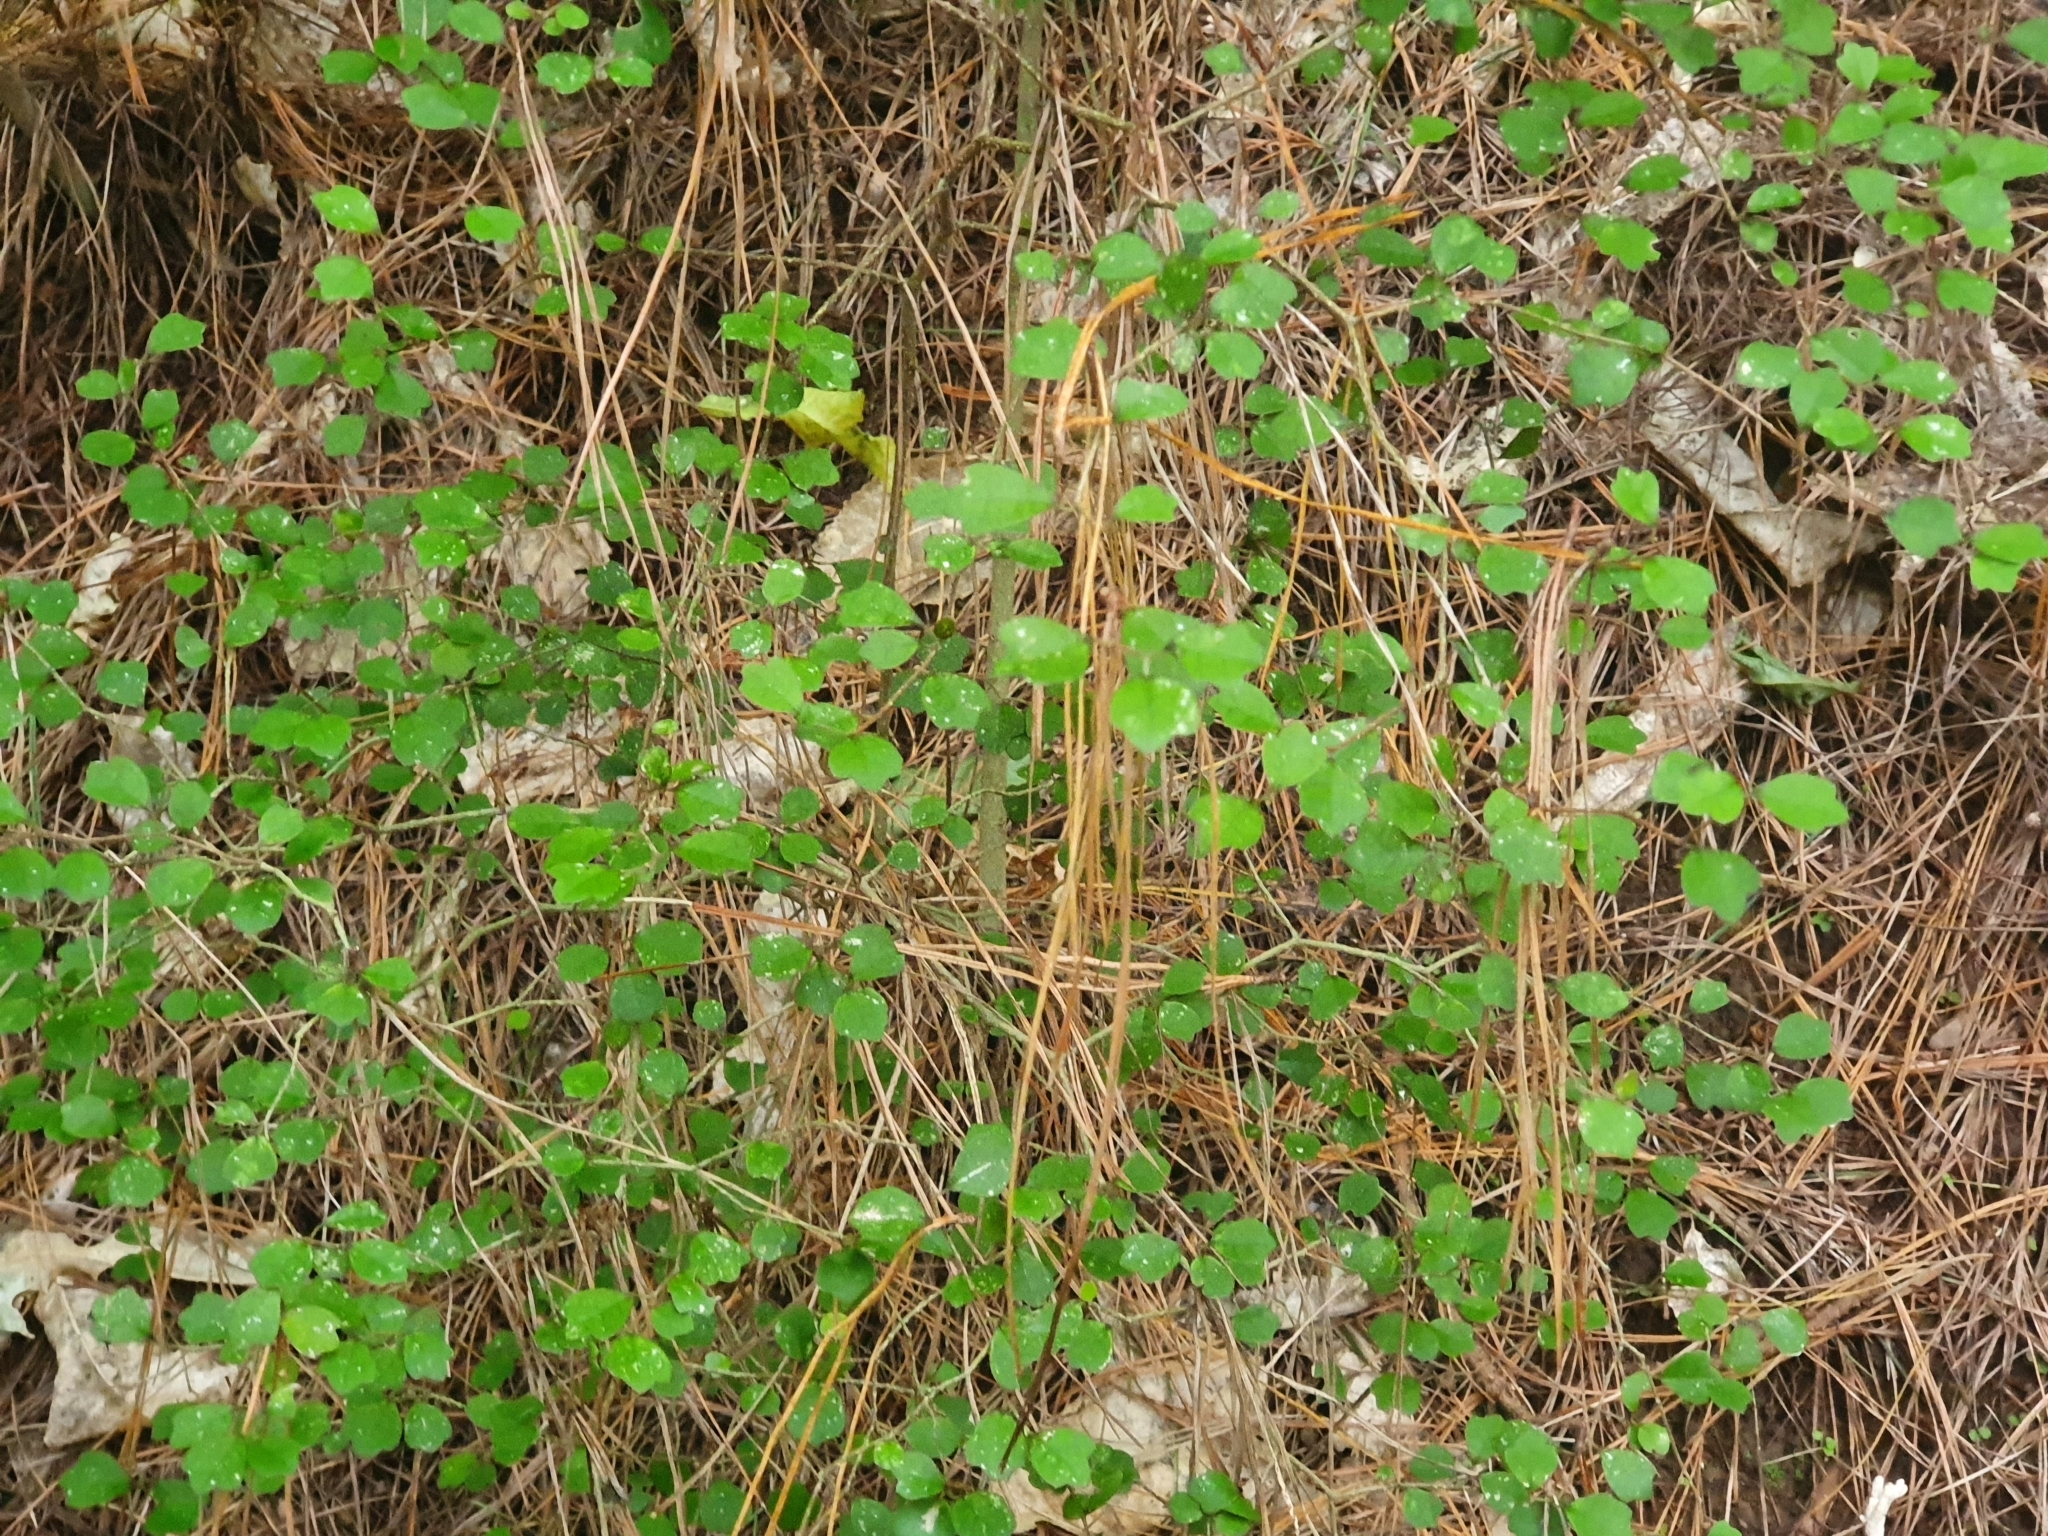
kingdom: Plantae
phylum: Tracheophyta
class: Magnoliopsida
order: Apiales
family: Pennantiaceae
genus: Pennantia
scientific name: Pennantia corymbosa
